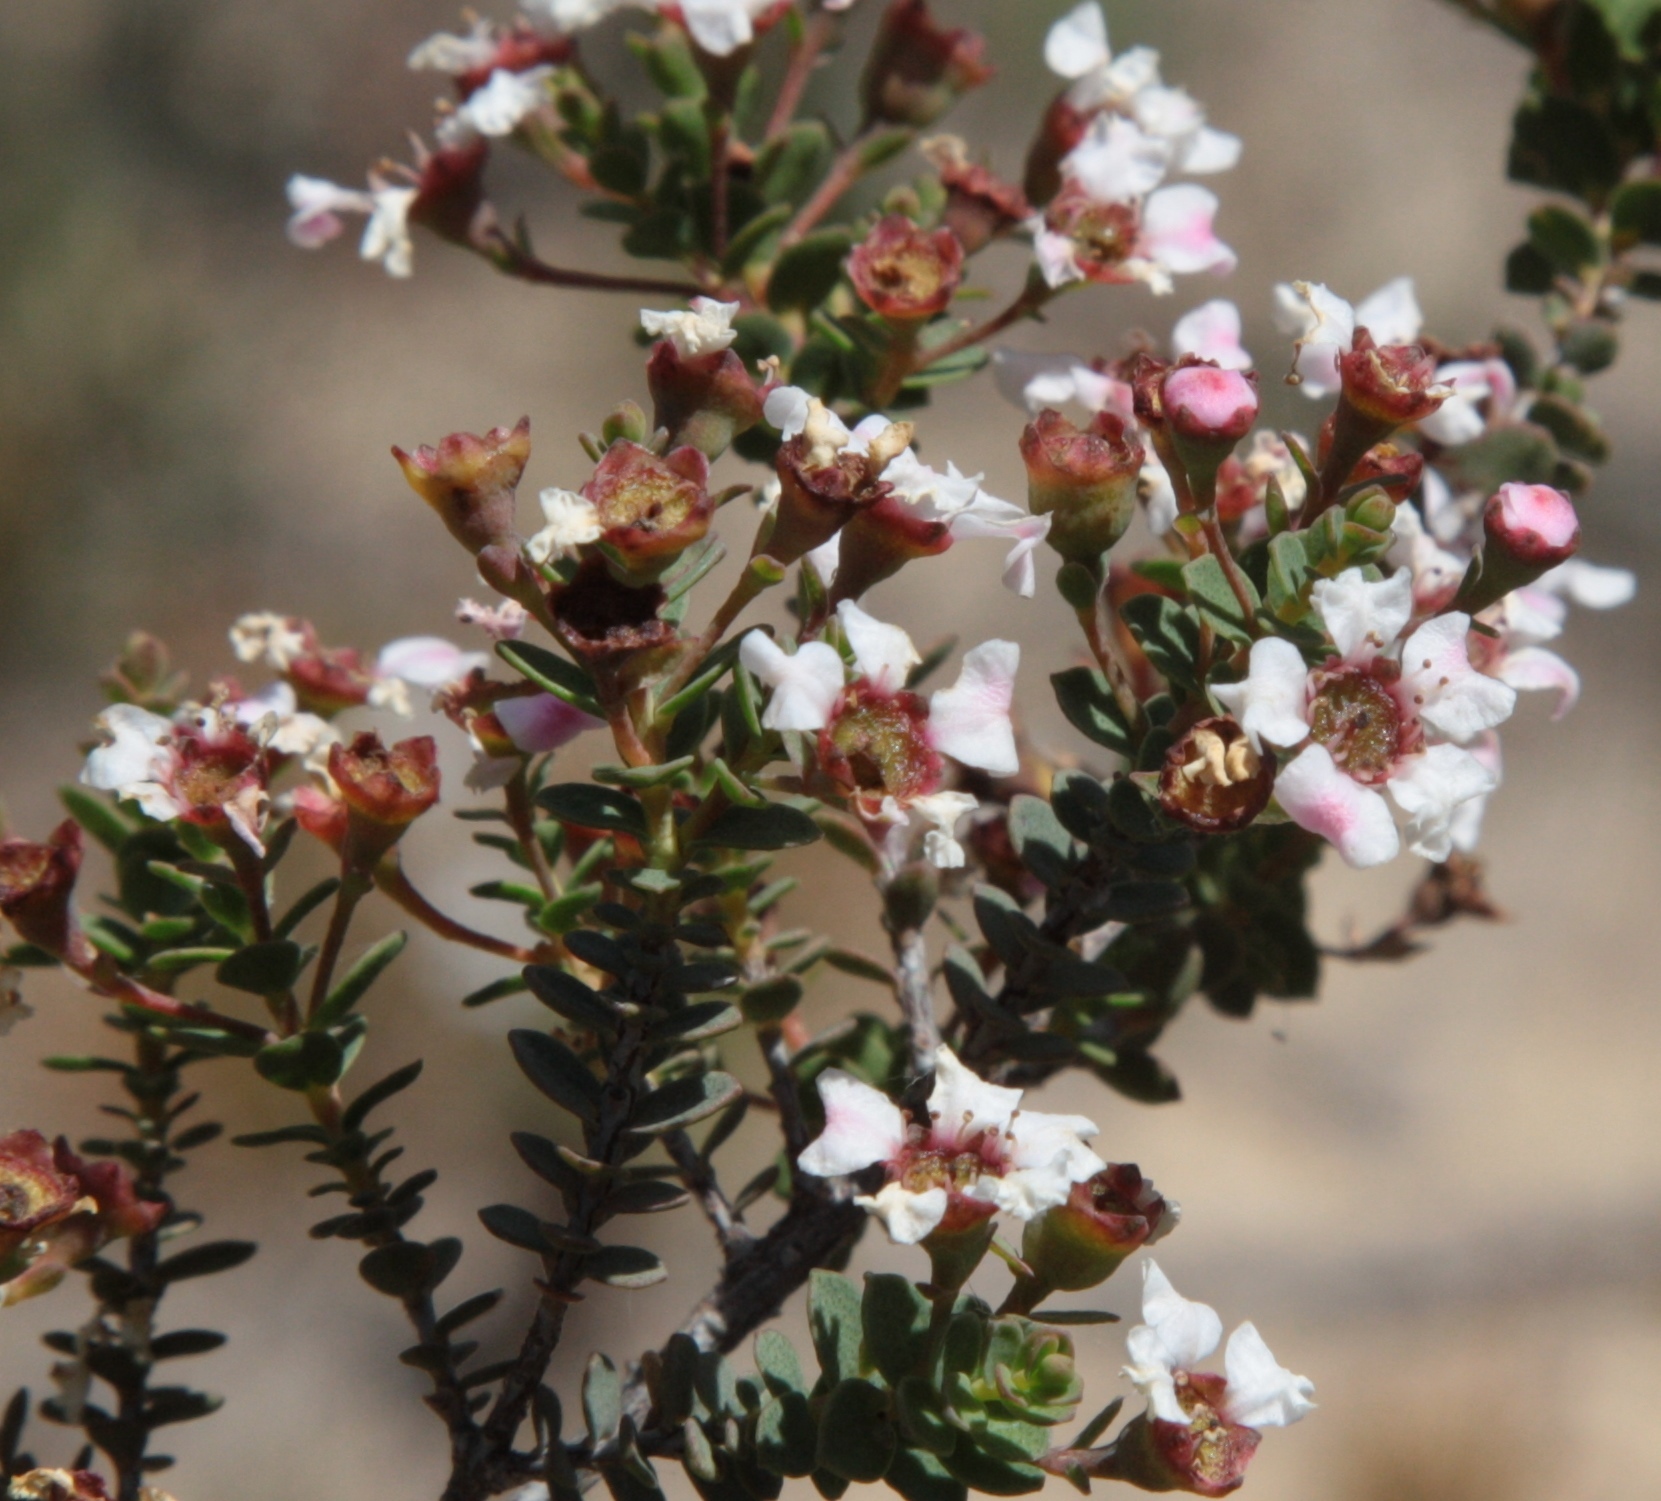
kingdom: Plantae
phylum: Tracheophyta
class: Magnoliopsida
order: Myrtales
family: Myrtaceae
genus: Ericomyrtus
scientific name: Ericomyrtus serpyllifolia
